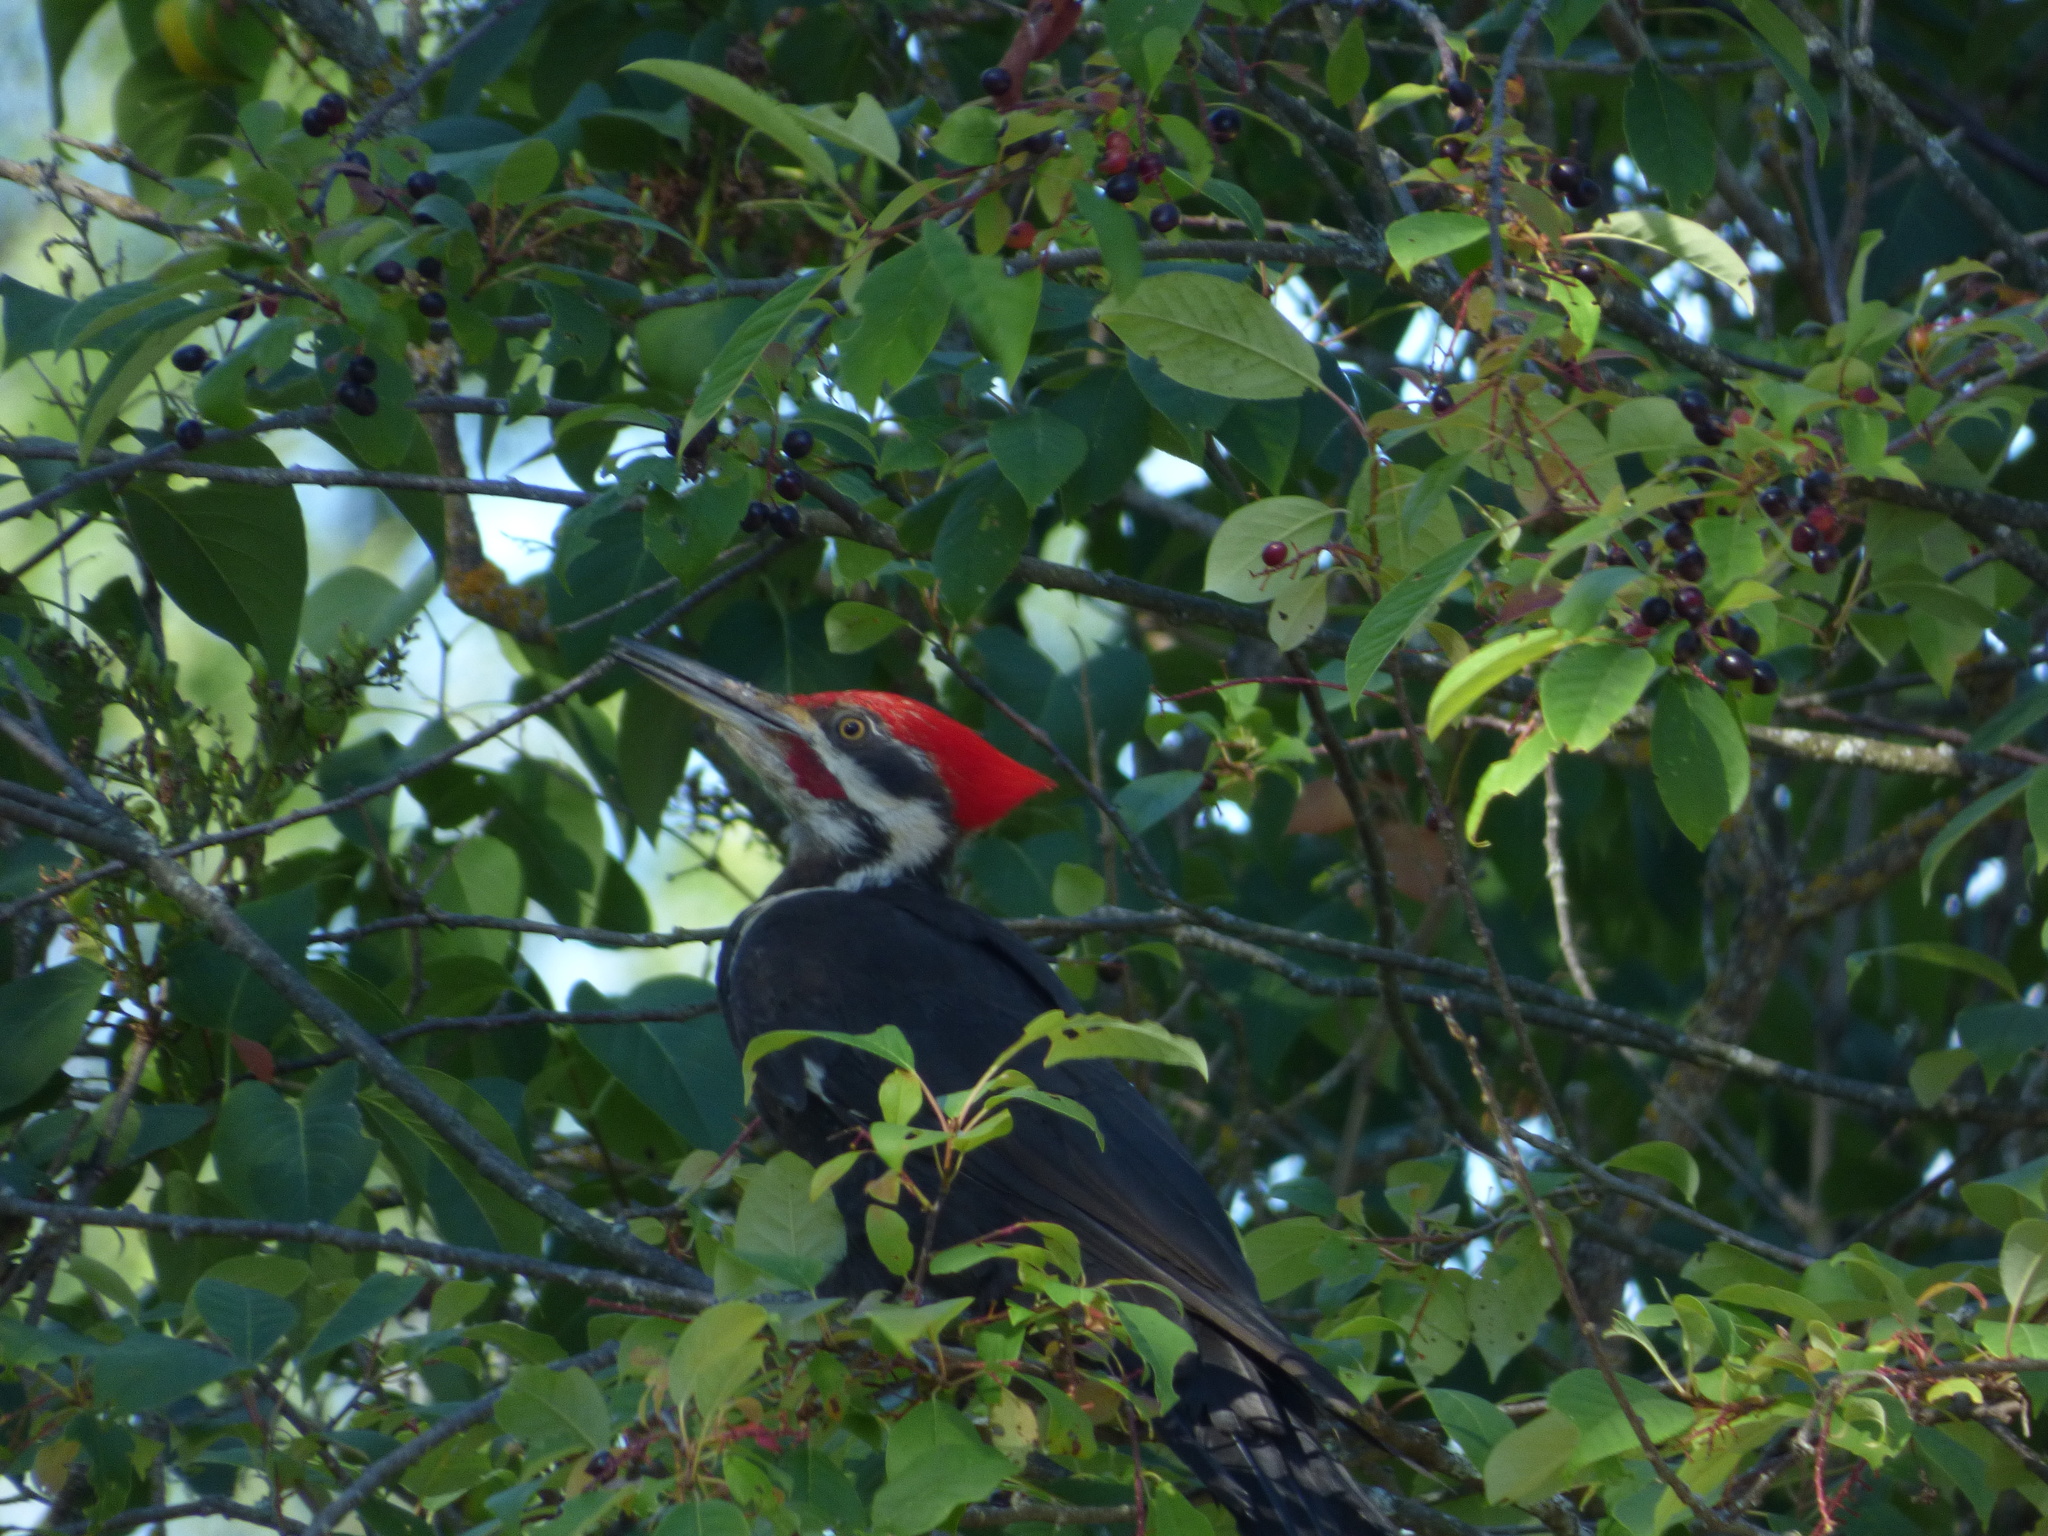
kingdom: Animalia
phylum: Chordata
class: Aves
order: Piciformes
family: Picidae
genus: Dryocopus
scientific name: Dryocopus pileatus
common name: Pileated woodpecker
